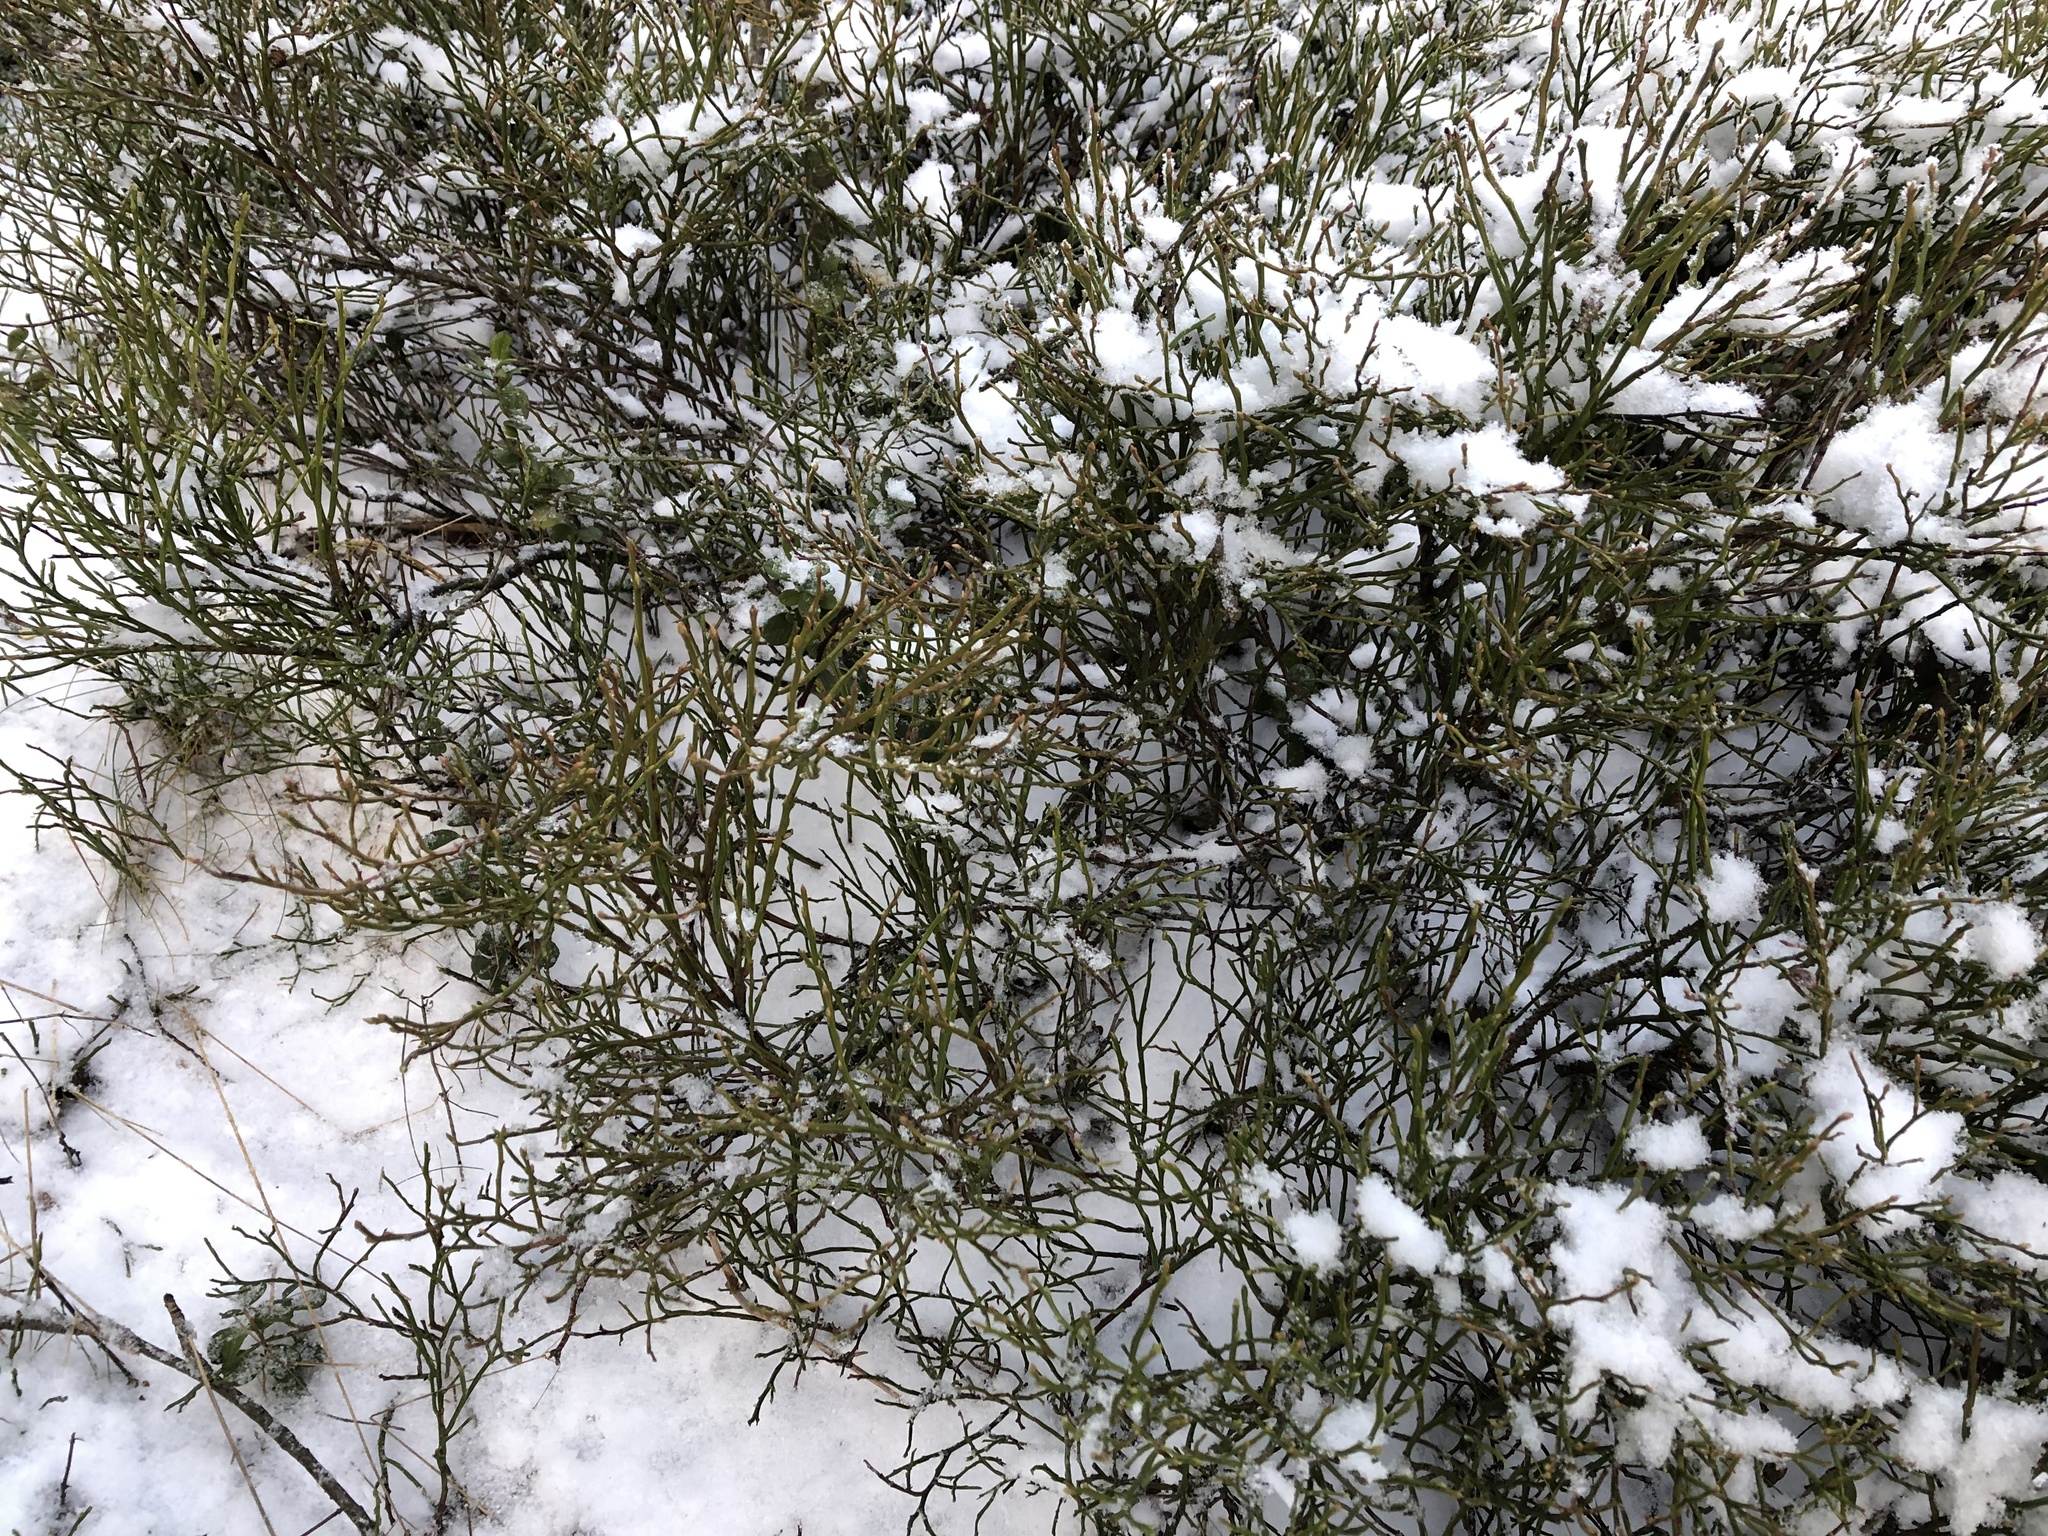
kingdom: Plantae
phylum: Tracheophyta
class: Magnoliopsida
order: Ericales
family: Ericaceae
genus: Vaccinium
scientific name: Vaccinium myrtillus
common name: Bilberry
